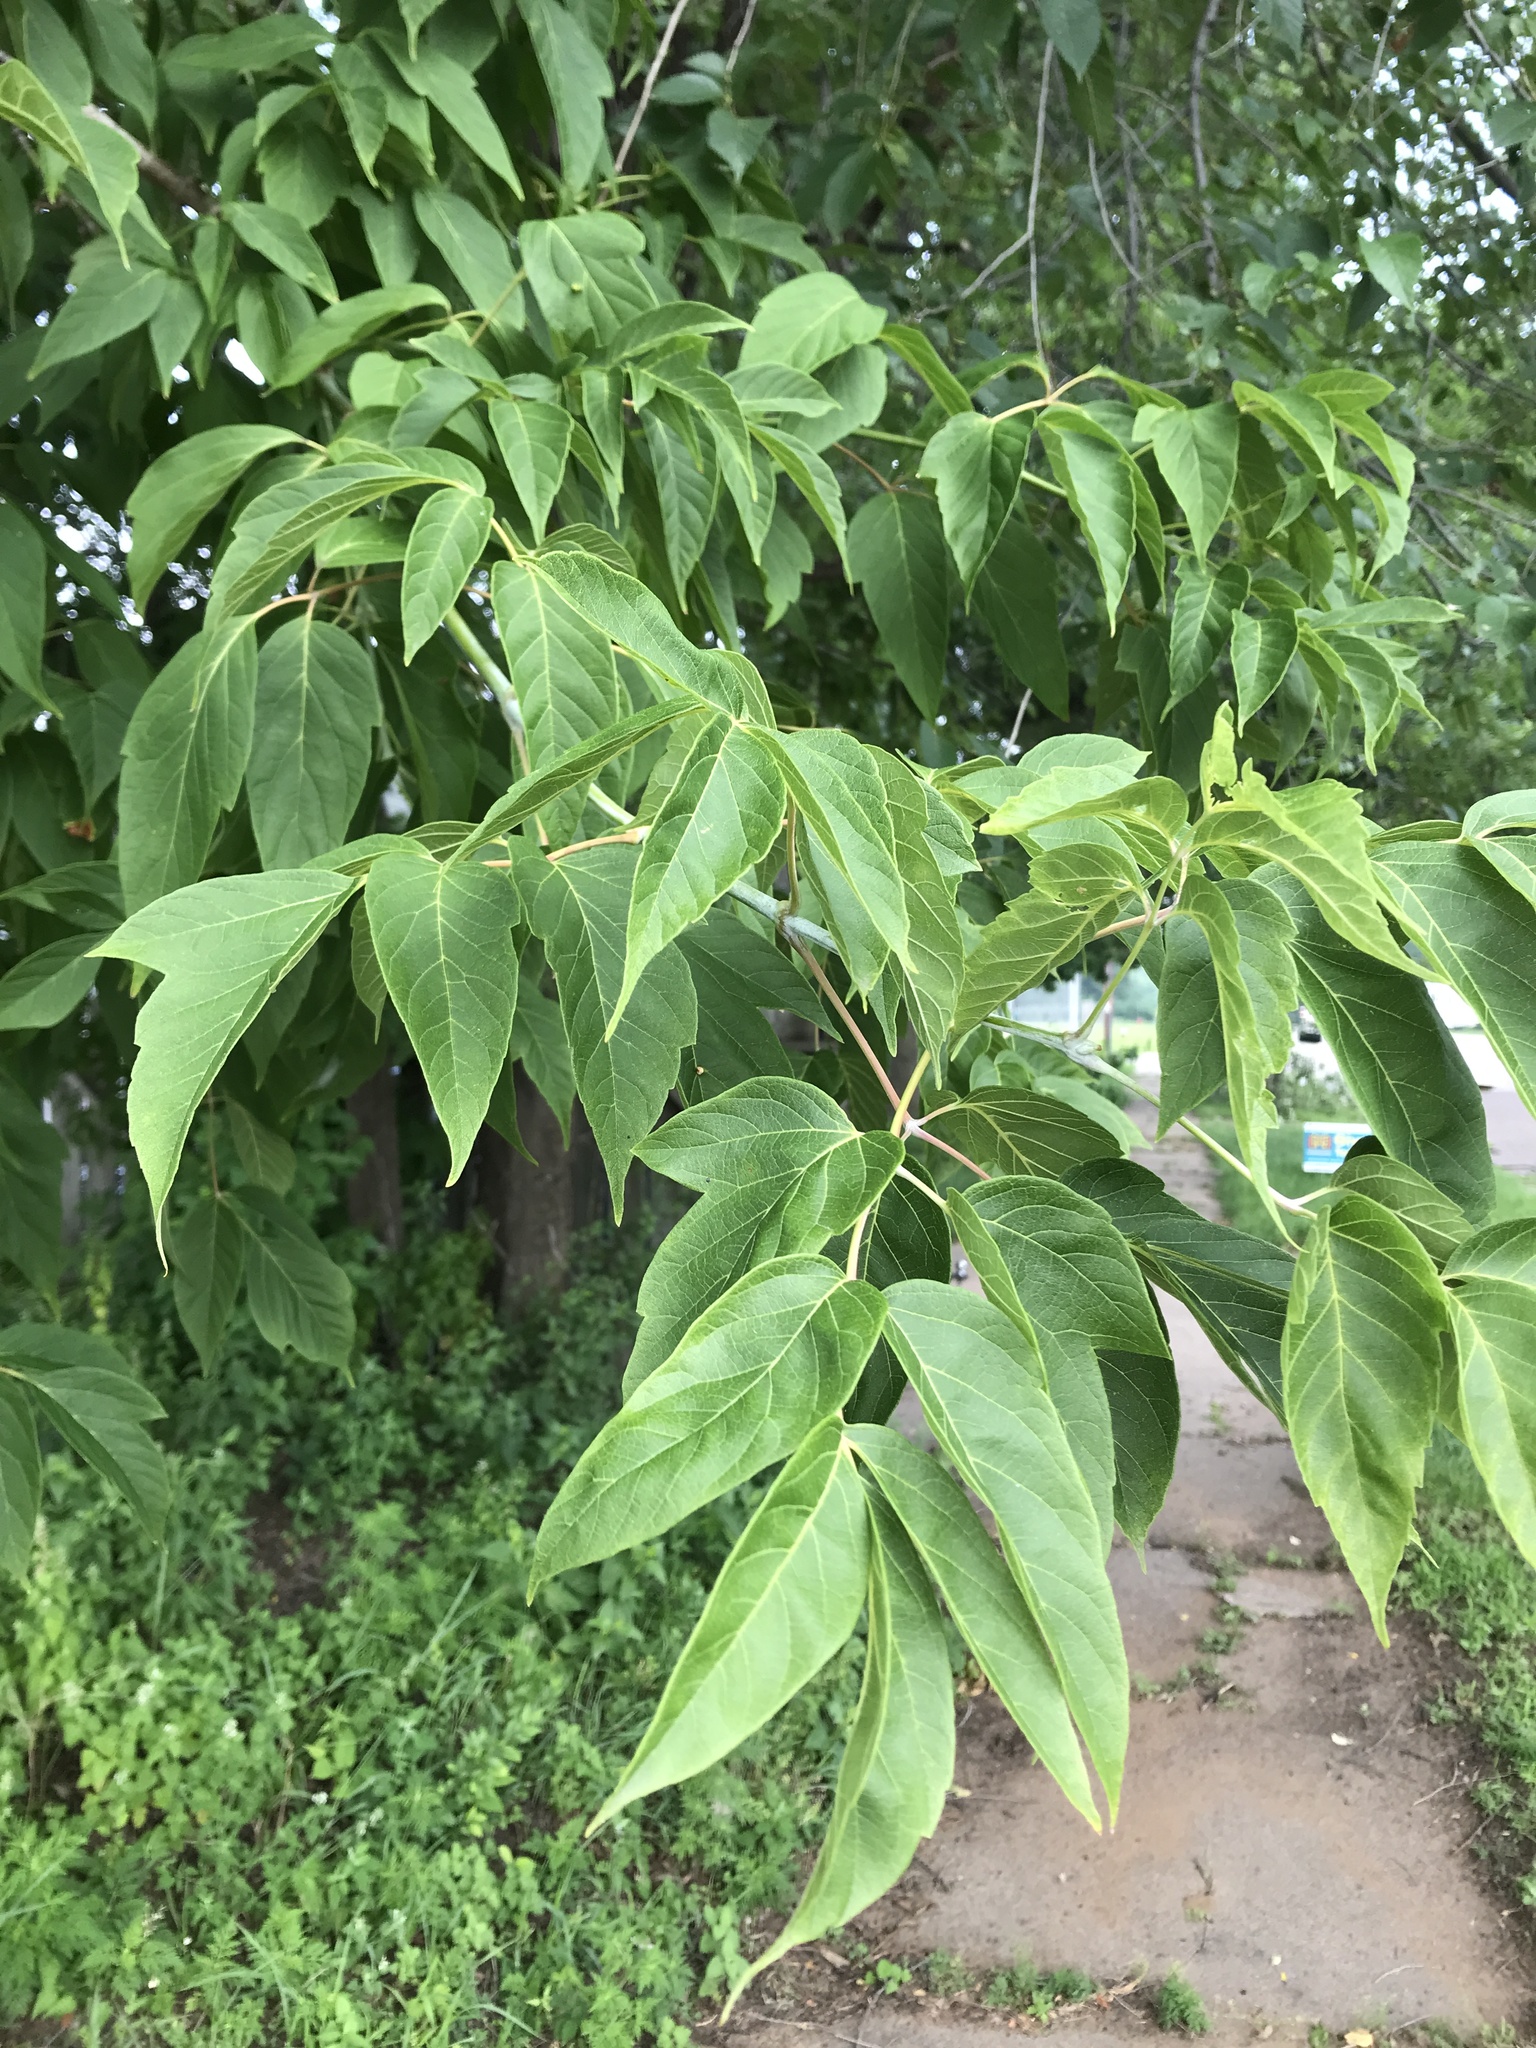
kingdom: Plantae
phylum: Tracheophyta
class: Magnoliopsida
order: Sapindales
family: Sapindaceae
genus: Acer
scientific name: Acer negundo
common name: Ashleaf maple
